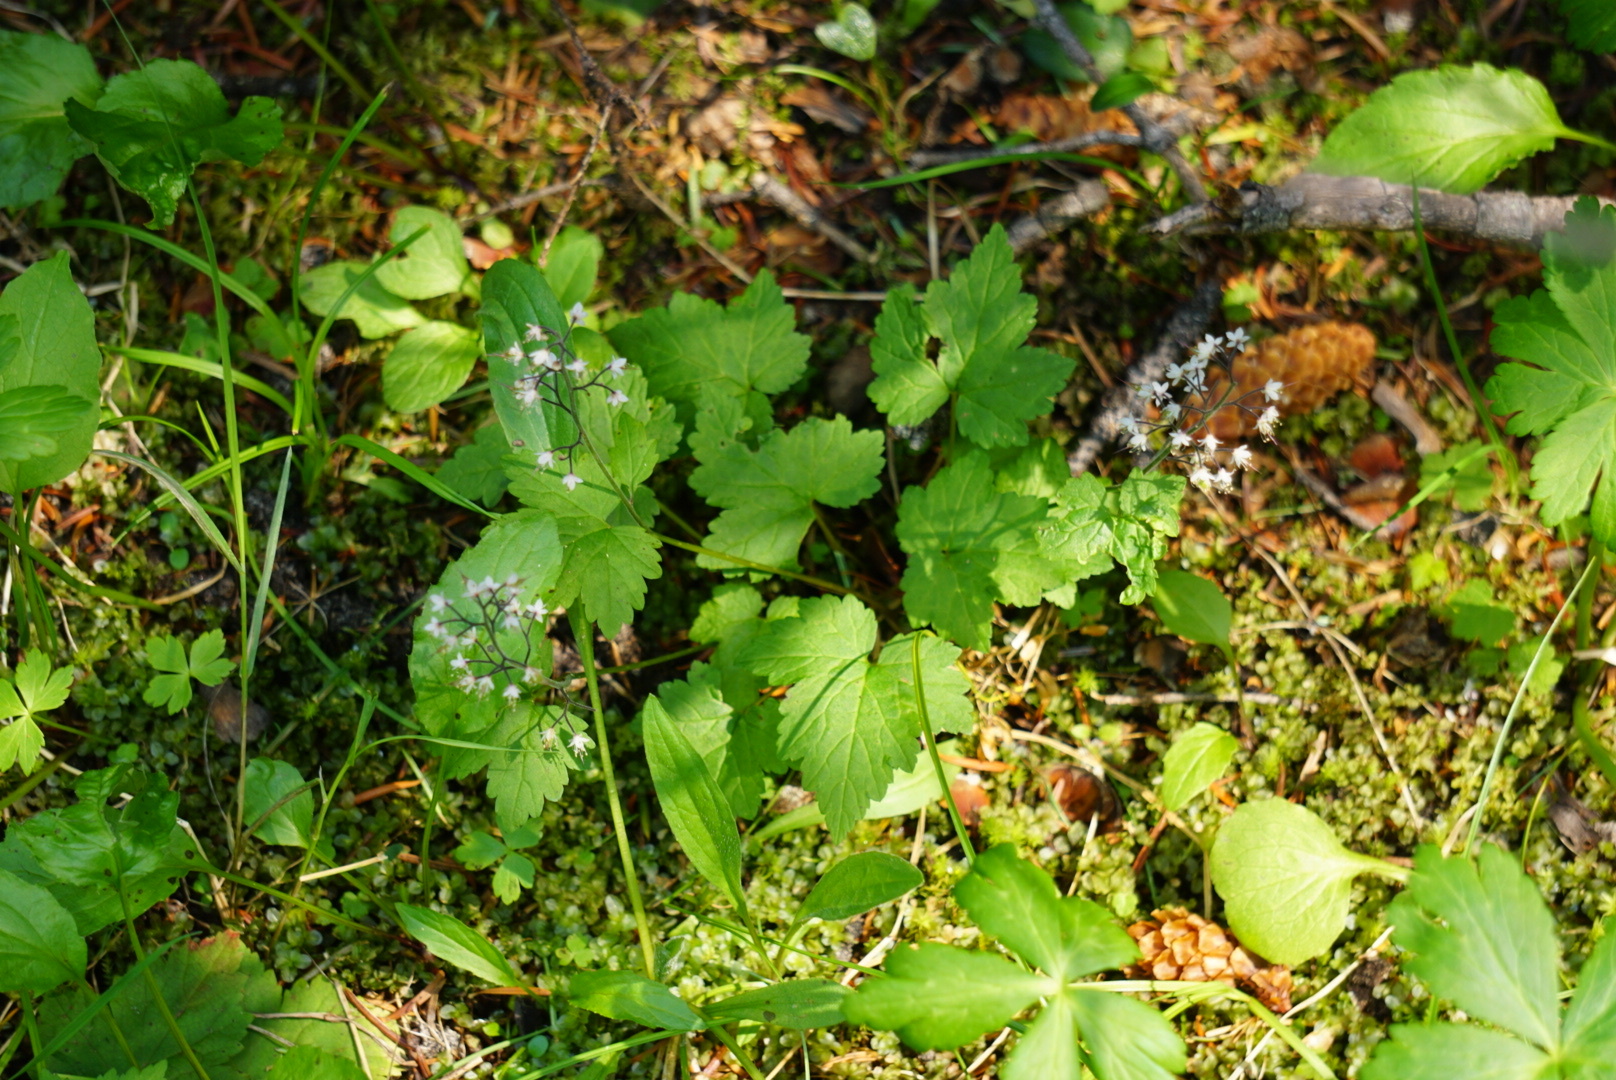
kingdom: Plantae
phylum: Tracheophyta
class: Magnoliopsida
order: Saxifragales
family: Saxifragaceae
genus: Tiarella
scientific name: Tiarella trifoliata
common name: Sugar-scoop
